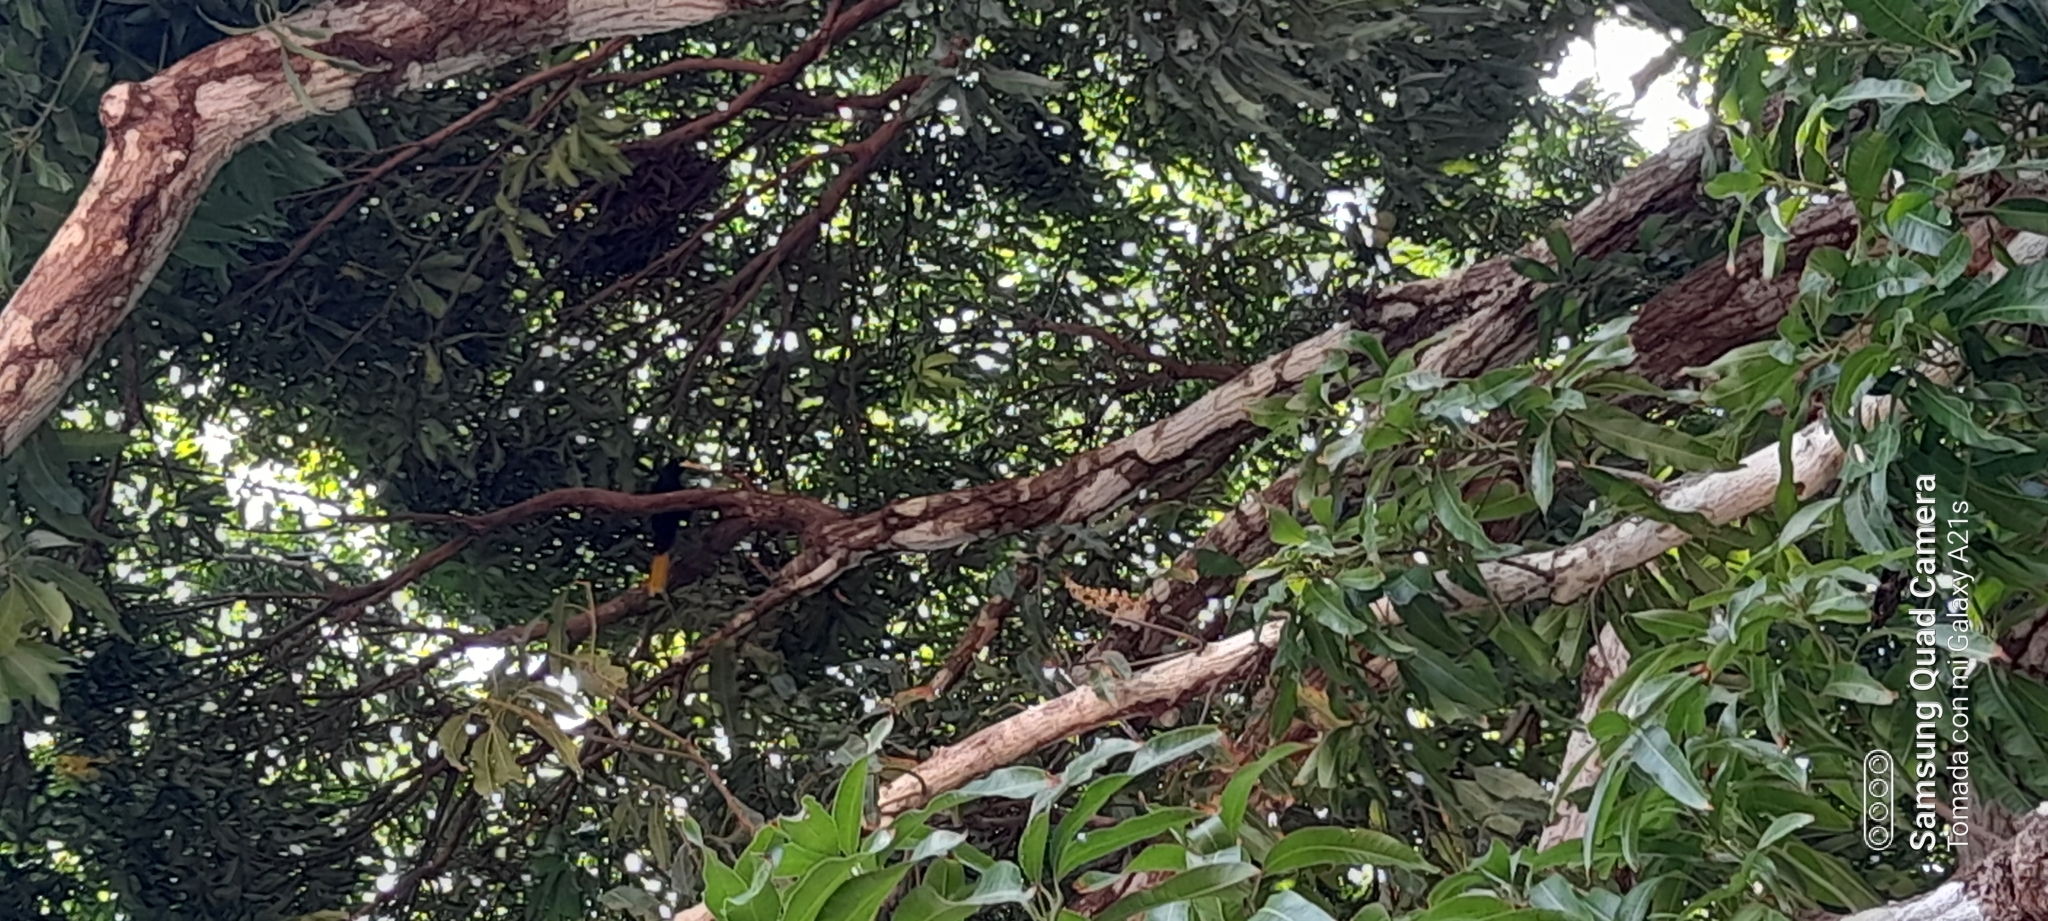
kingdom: Animalia
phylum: Chordata
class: Aves
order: Passeriformes
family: Icteridae
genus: Psarocolius
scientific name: Psarocolius decumanus
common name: Crested oropendola
